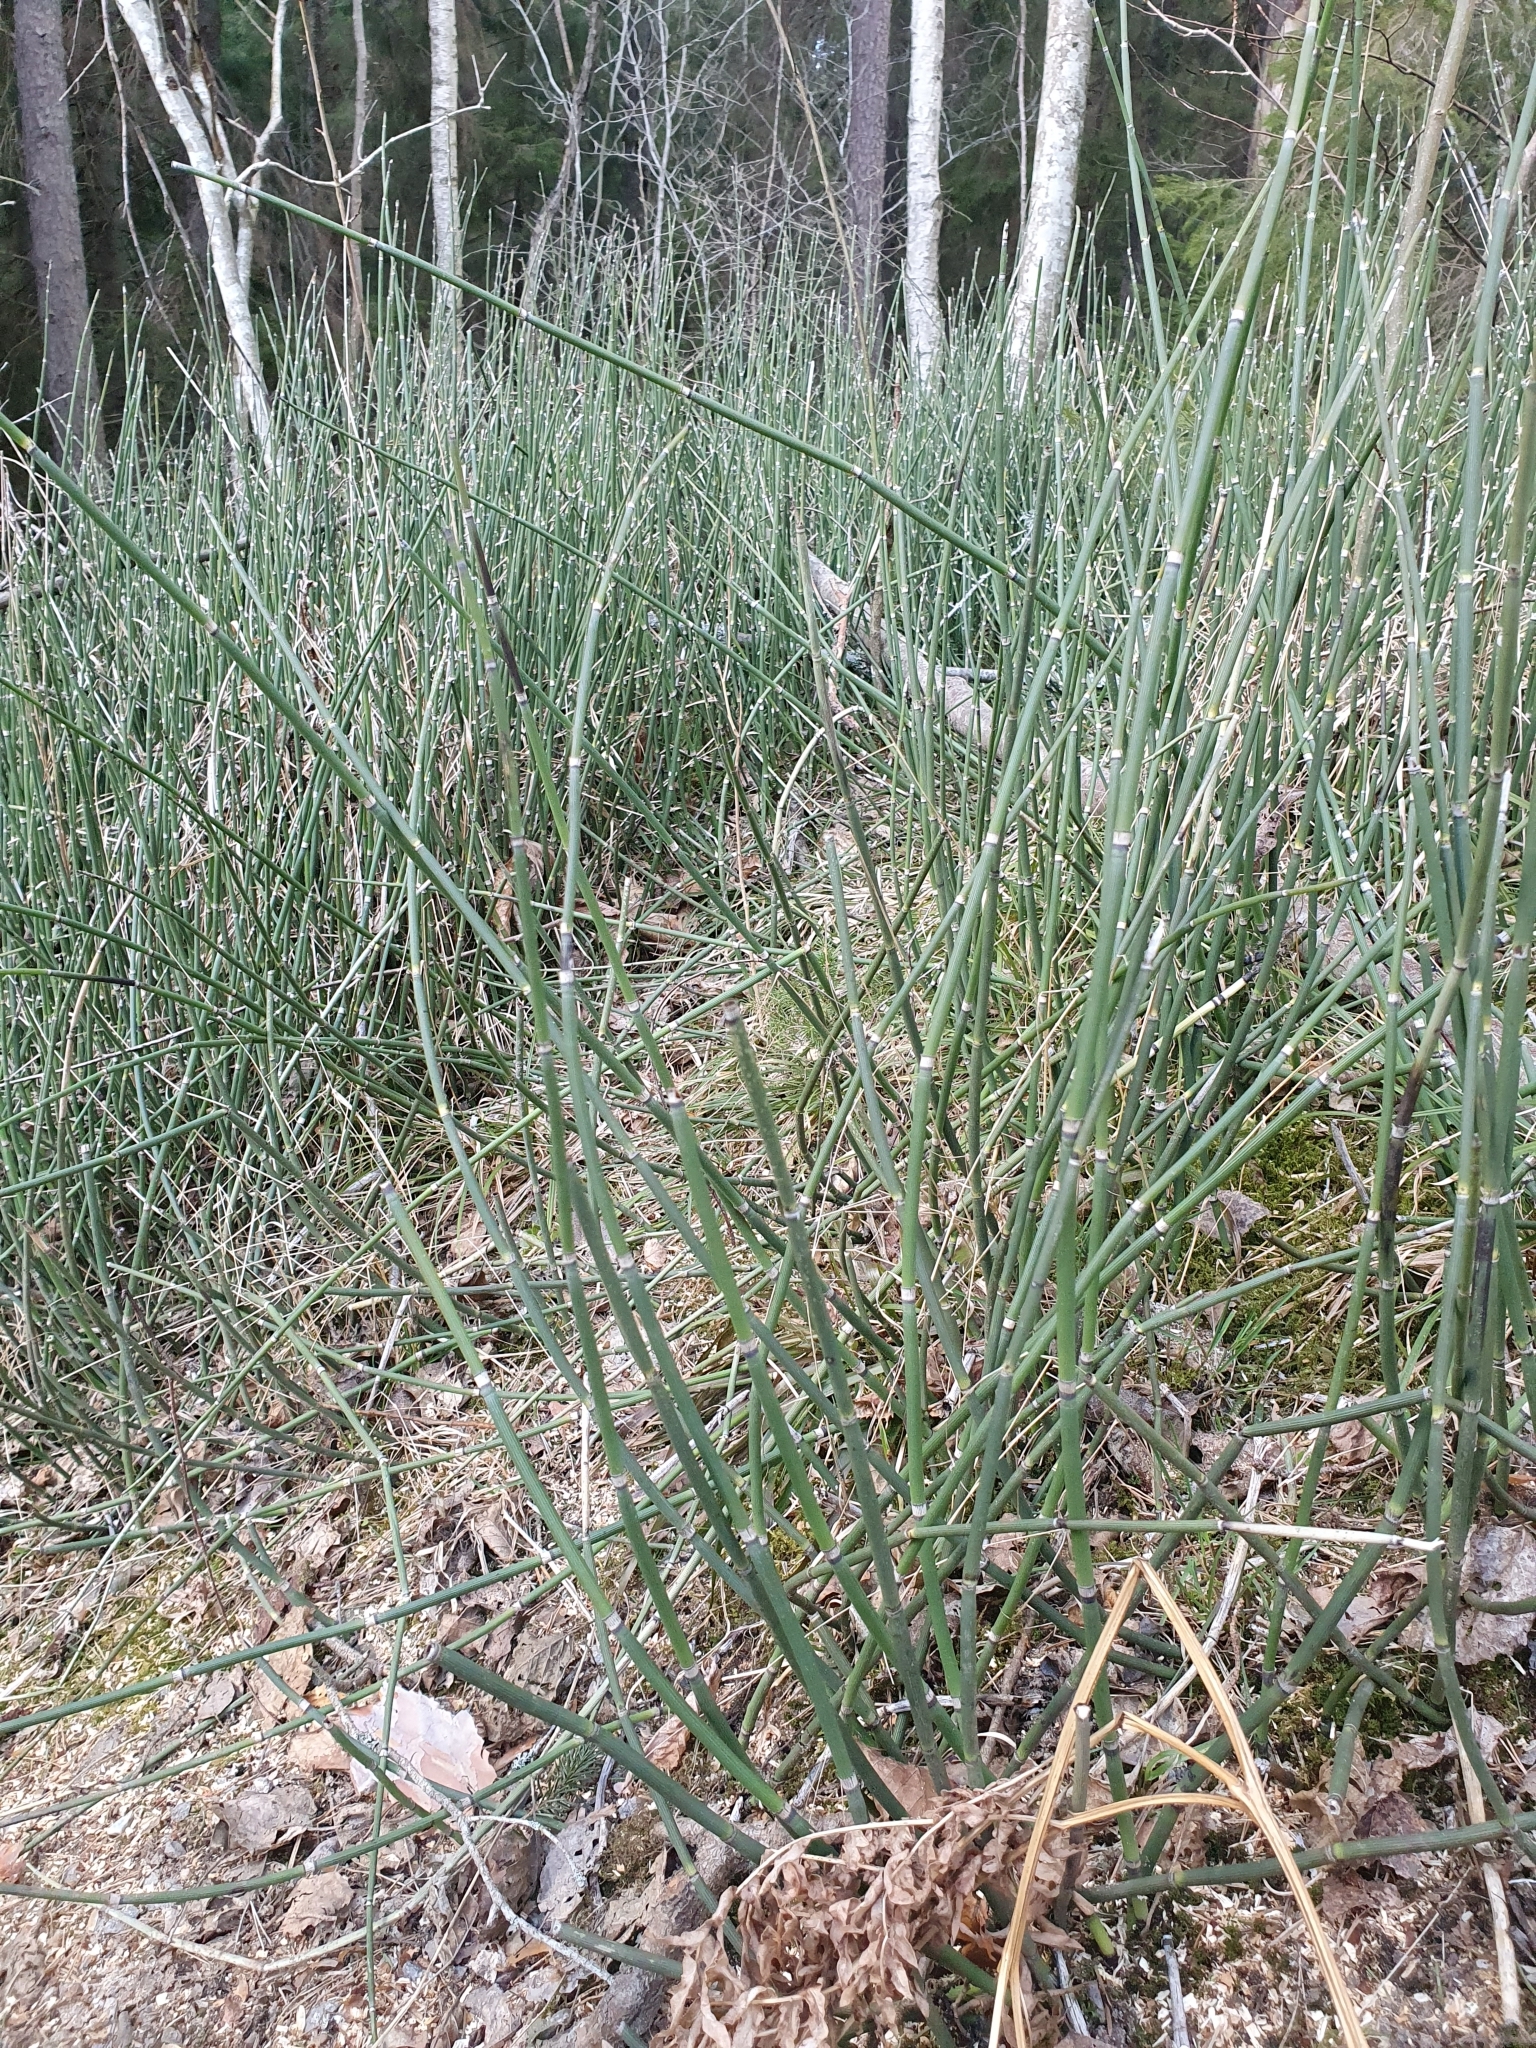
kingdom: Plantae
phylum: Tracheophyta
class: Polypodiopsida
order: Equisetales
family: Equisetaceae
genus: Equisetum
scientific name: Equisetum hyemale
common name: Rough horsetail
